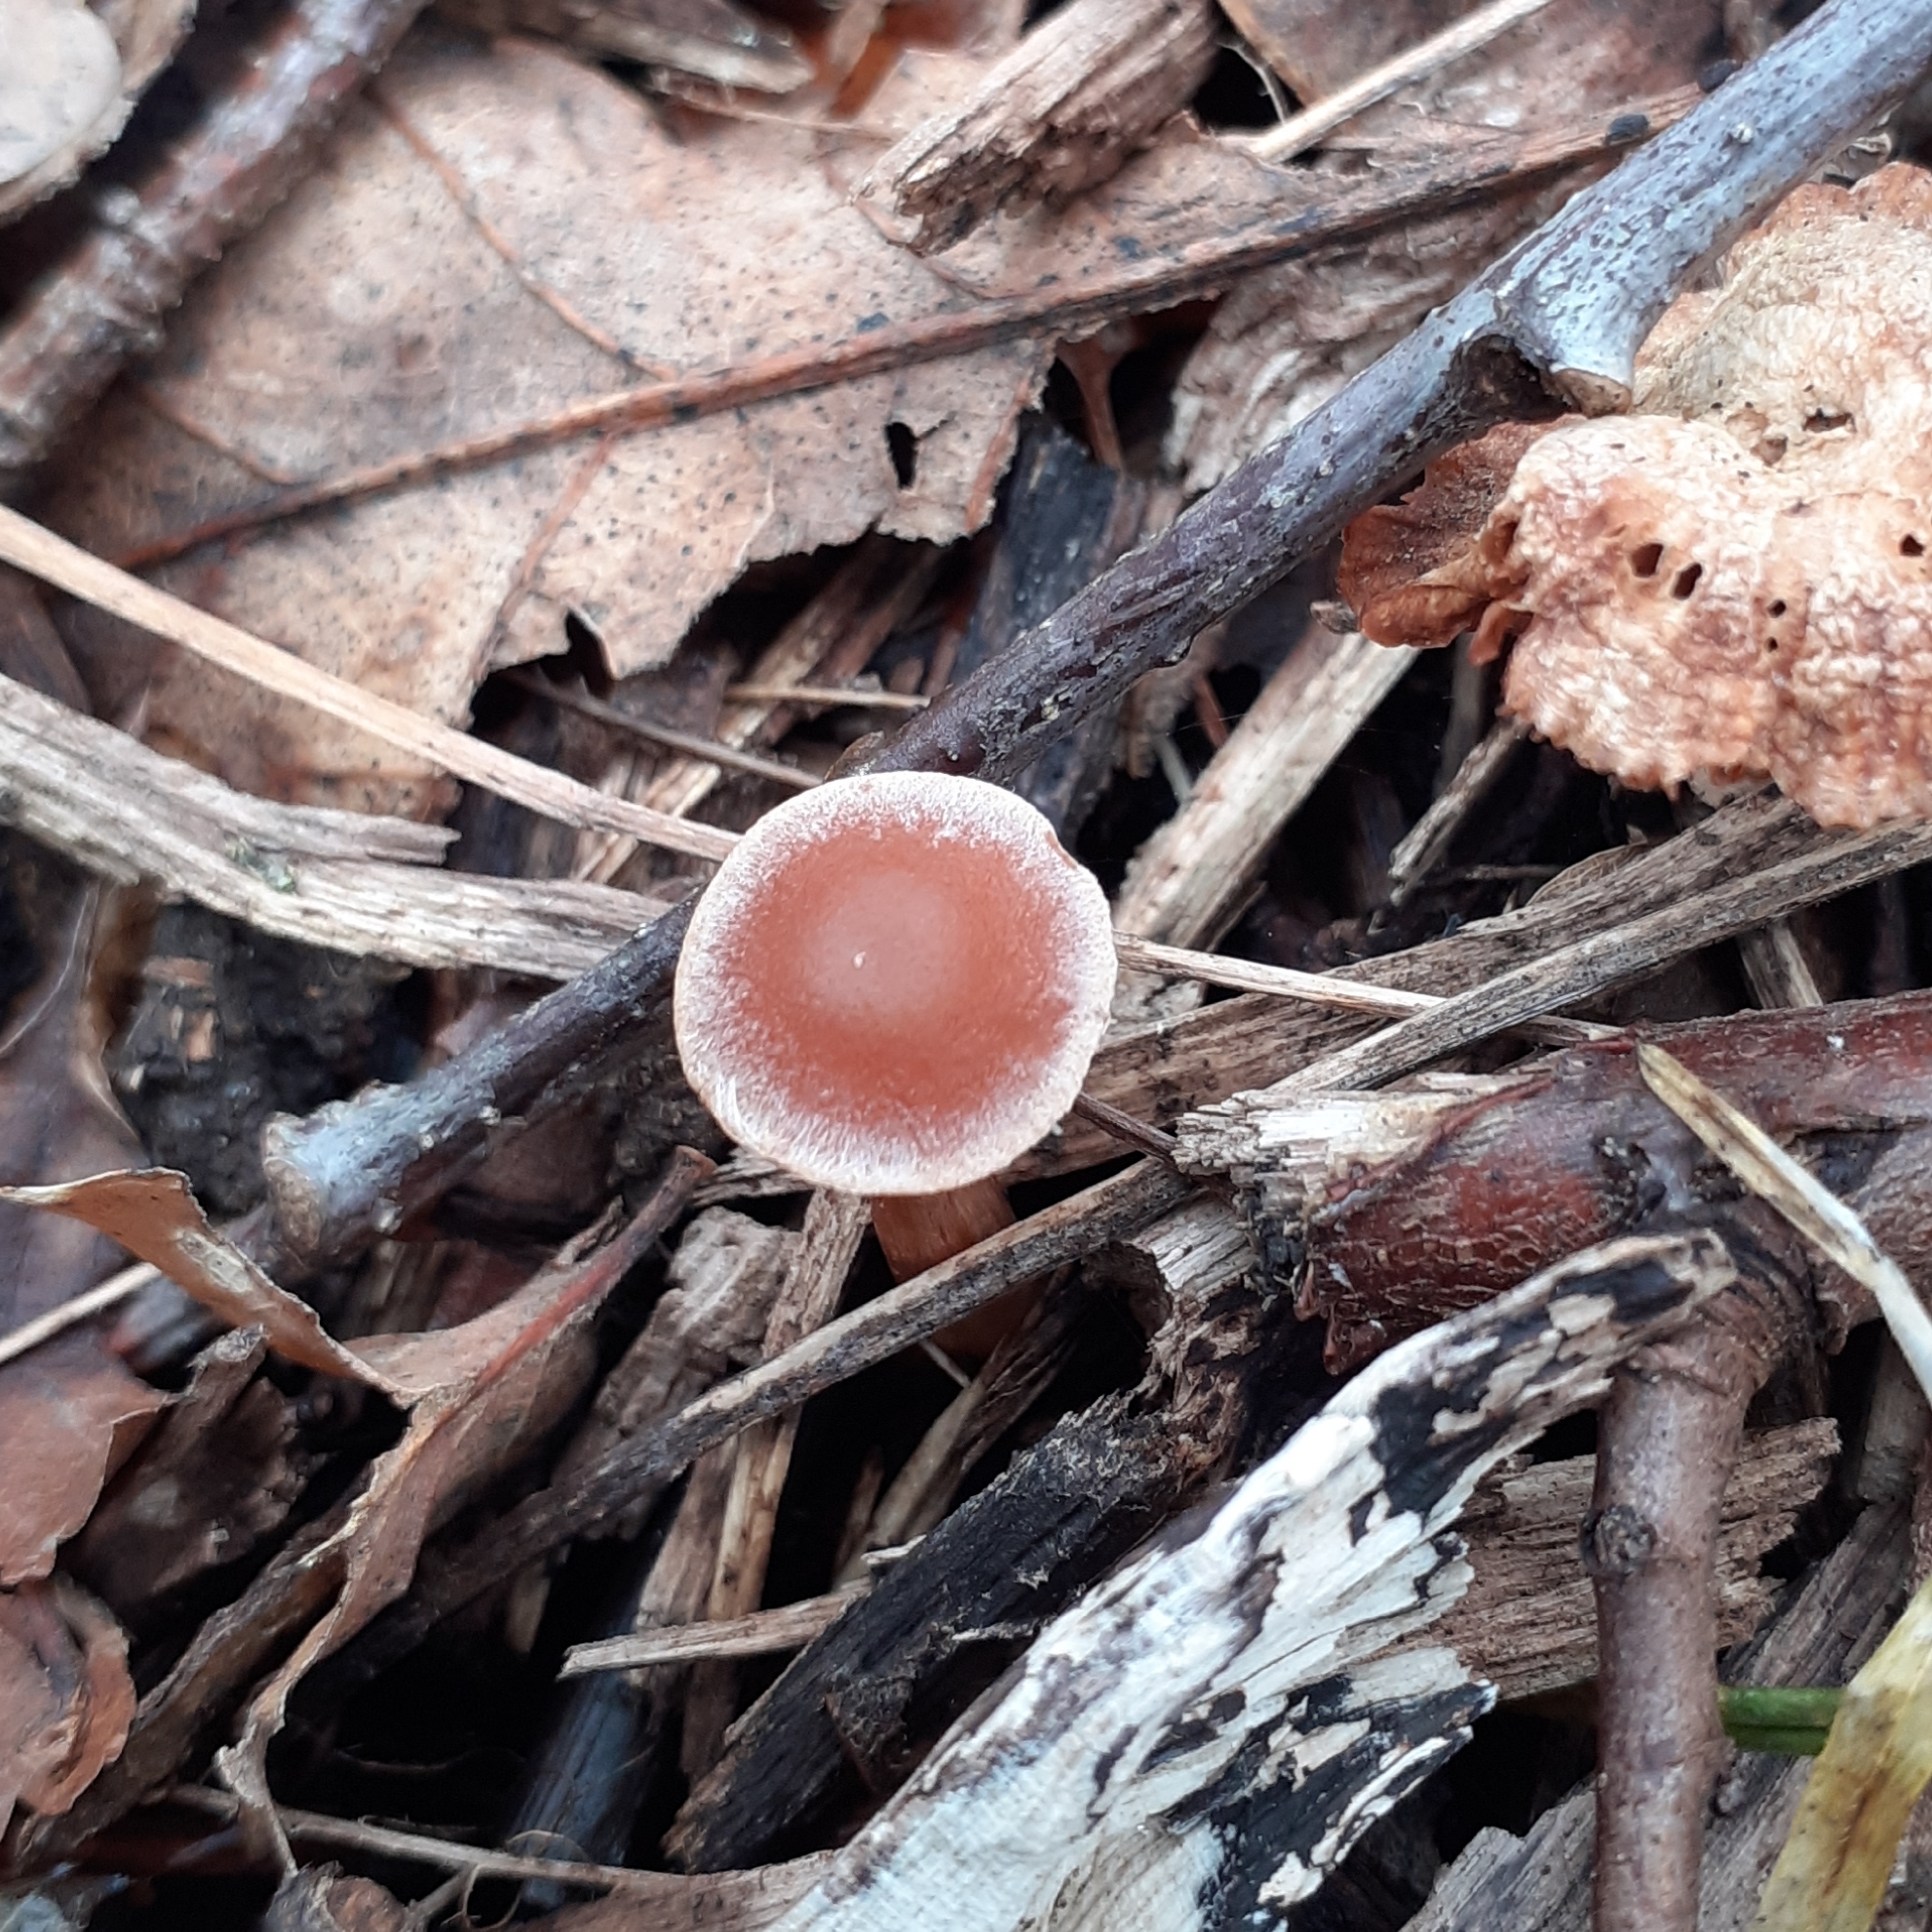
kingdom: Fungi
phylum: Basidiomycota
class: Agaricomycetes
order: Agaricales
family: Tubariaceae
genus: Tubaria
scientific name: Tubaria furfuracea
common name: Scurfy twiglet
